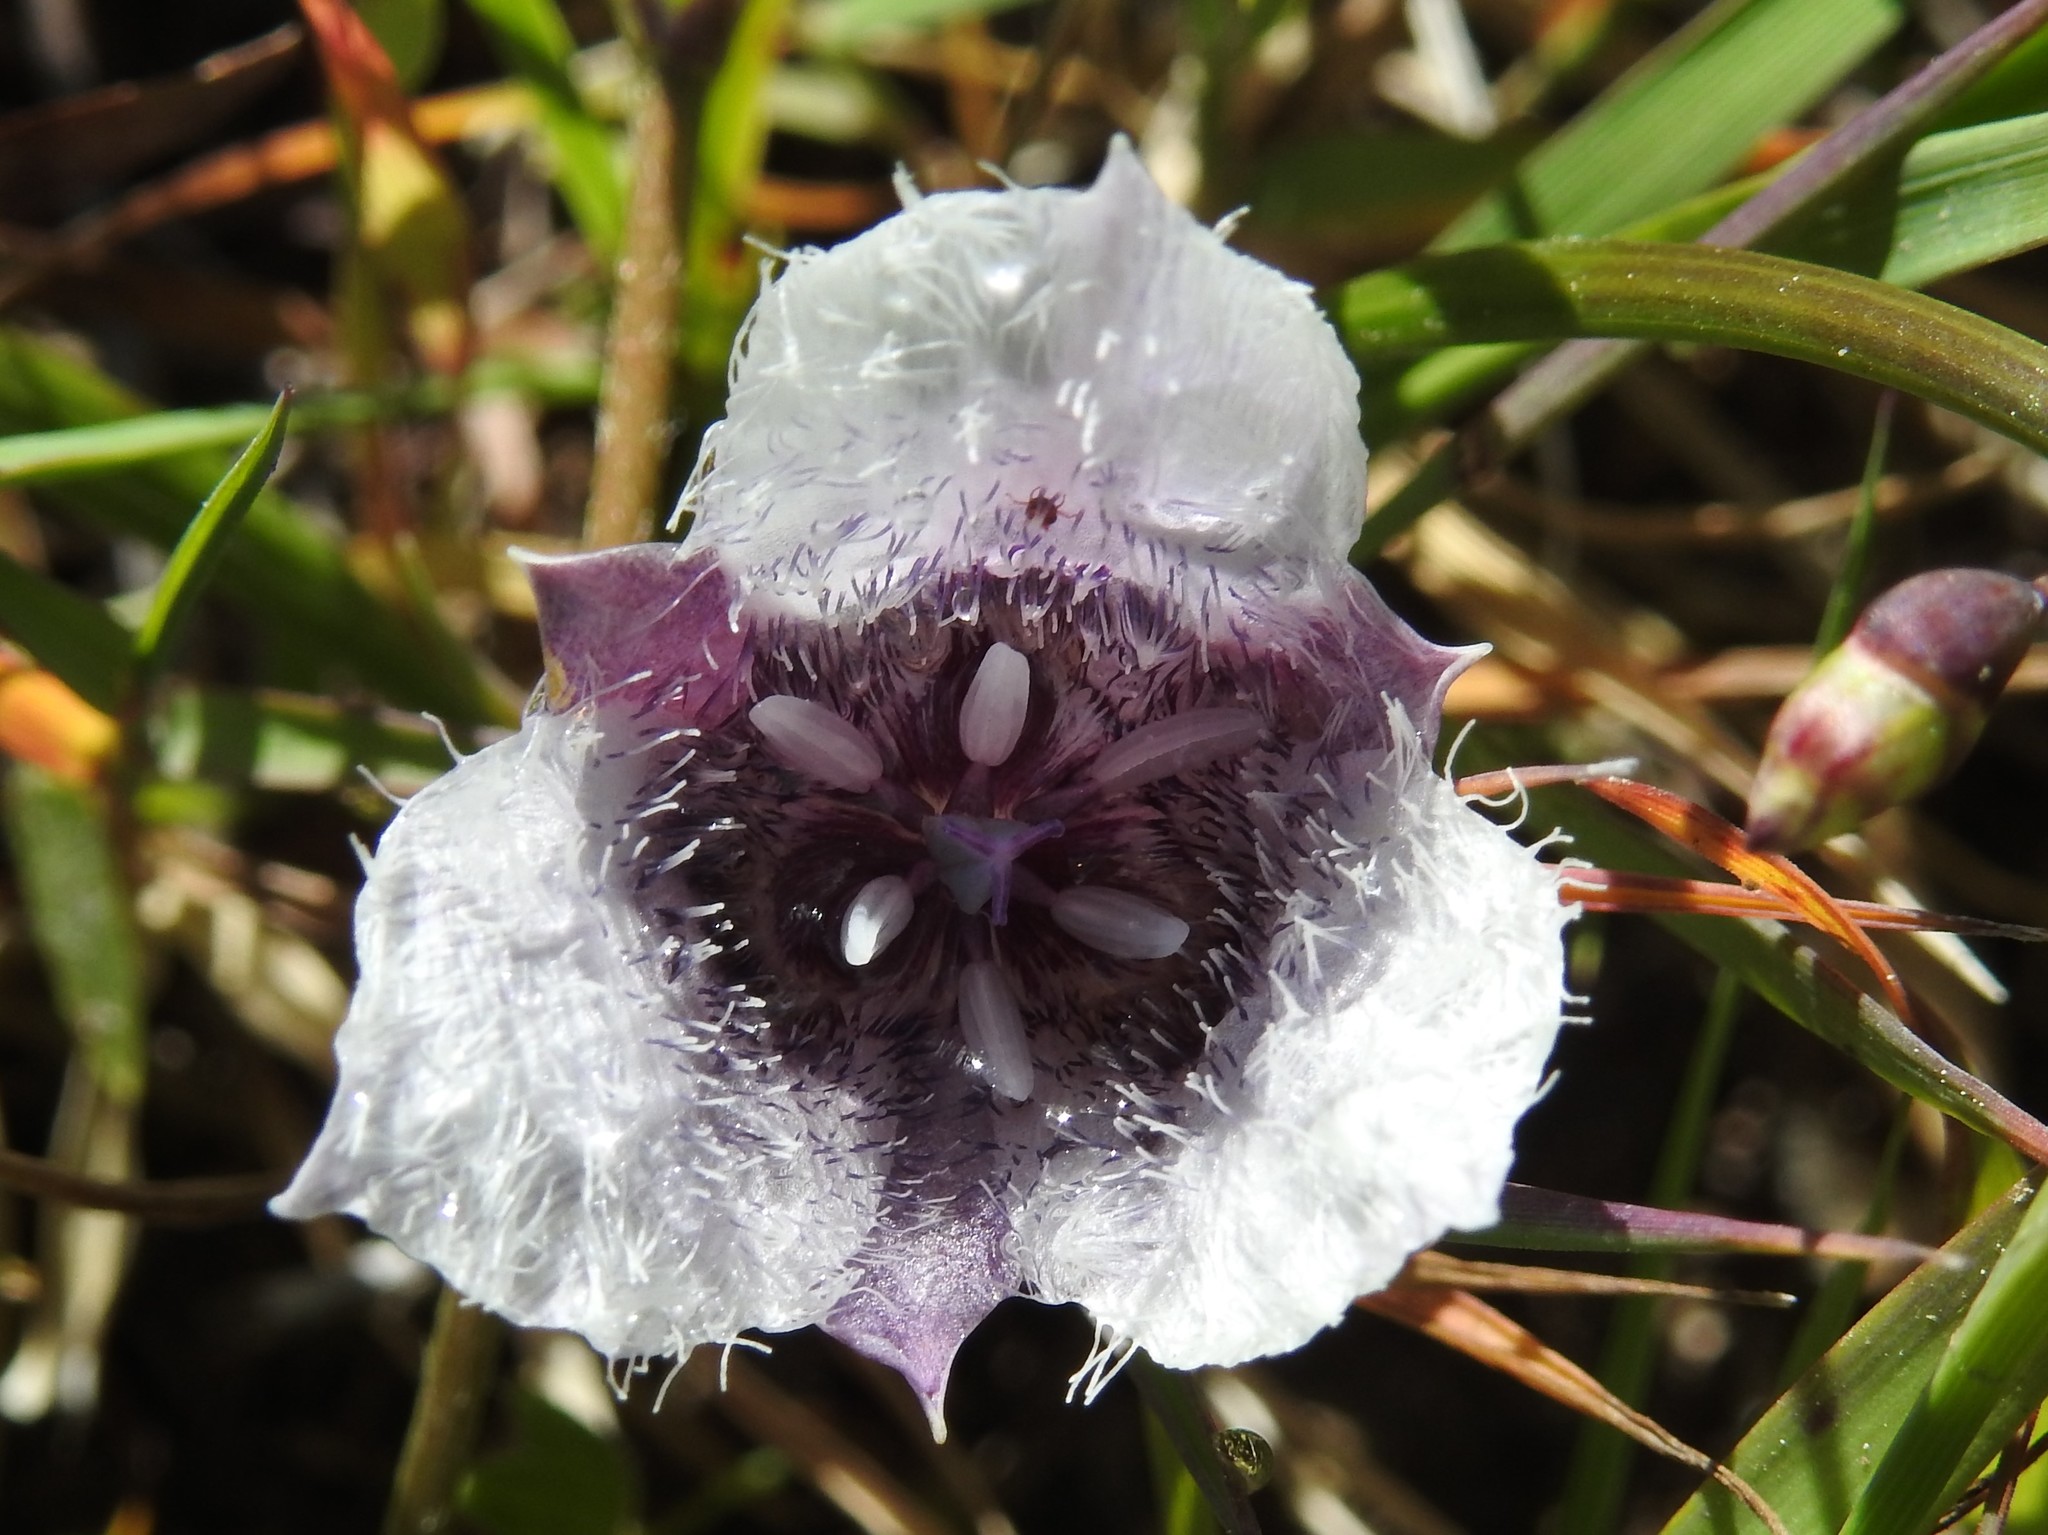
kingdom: Plantae
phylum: Tracheophyta
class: Liliopsida
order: Liliales
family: Liliaceae
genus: Calochortus
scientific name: Calochortus tolmiei
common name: Pussy-ears
